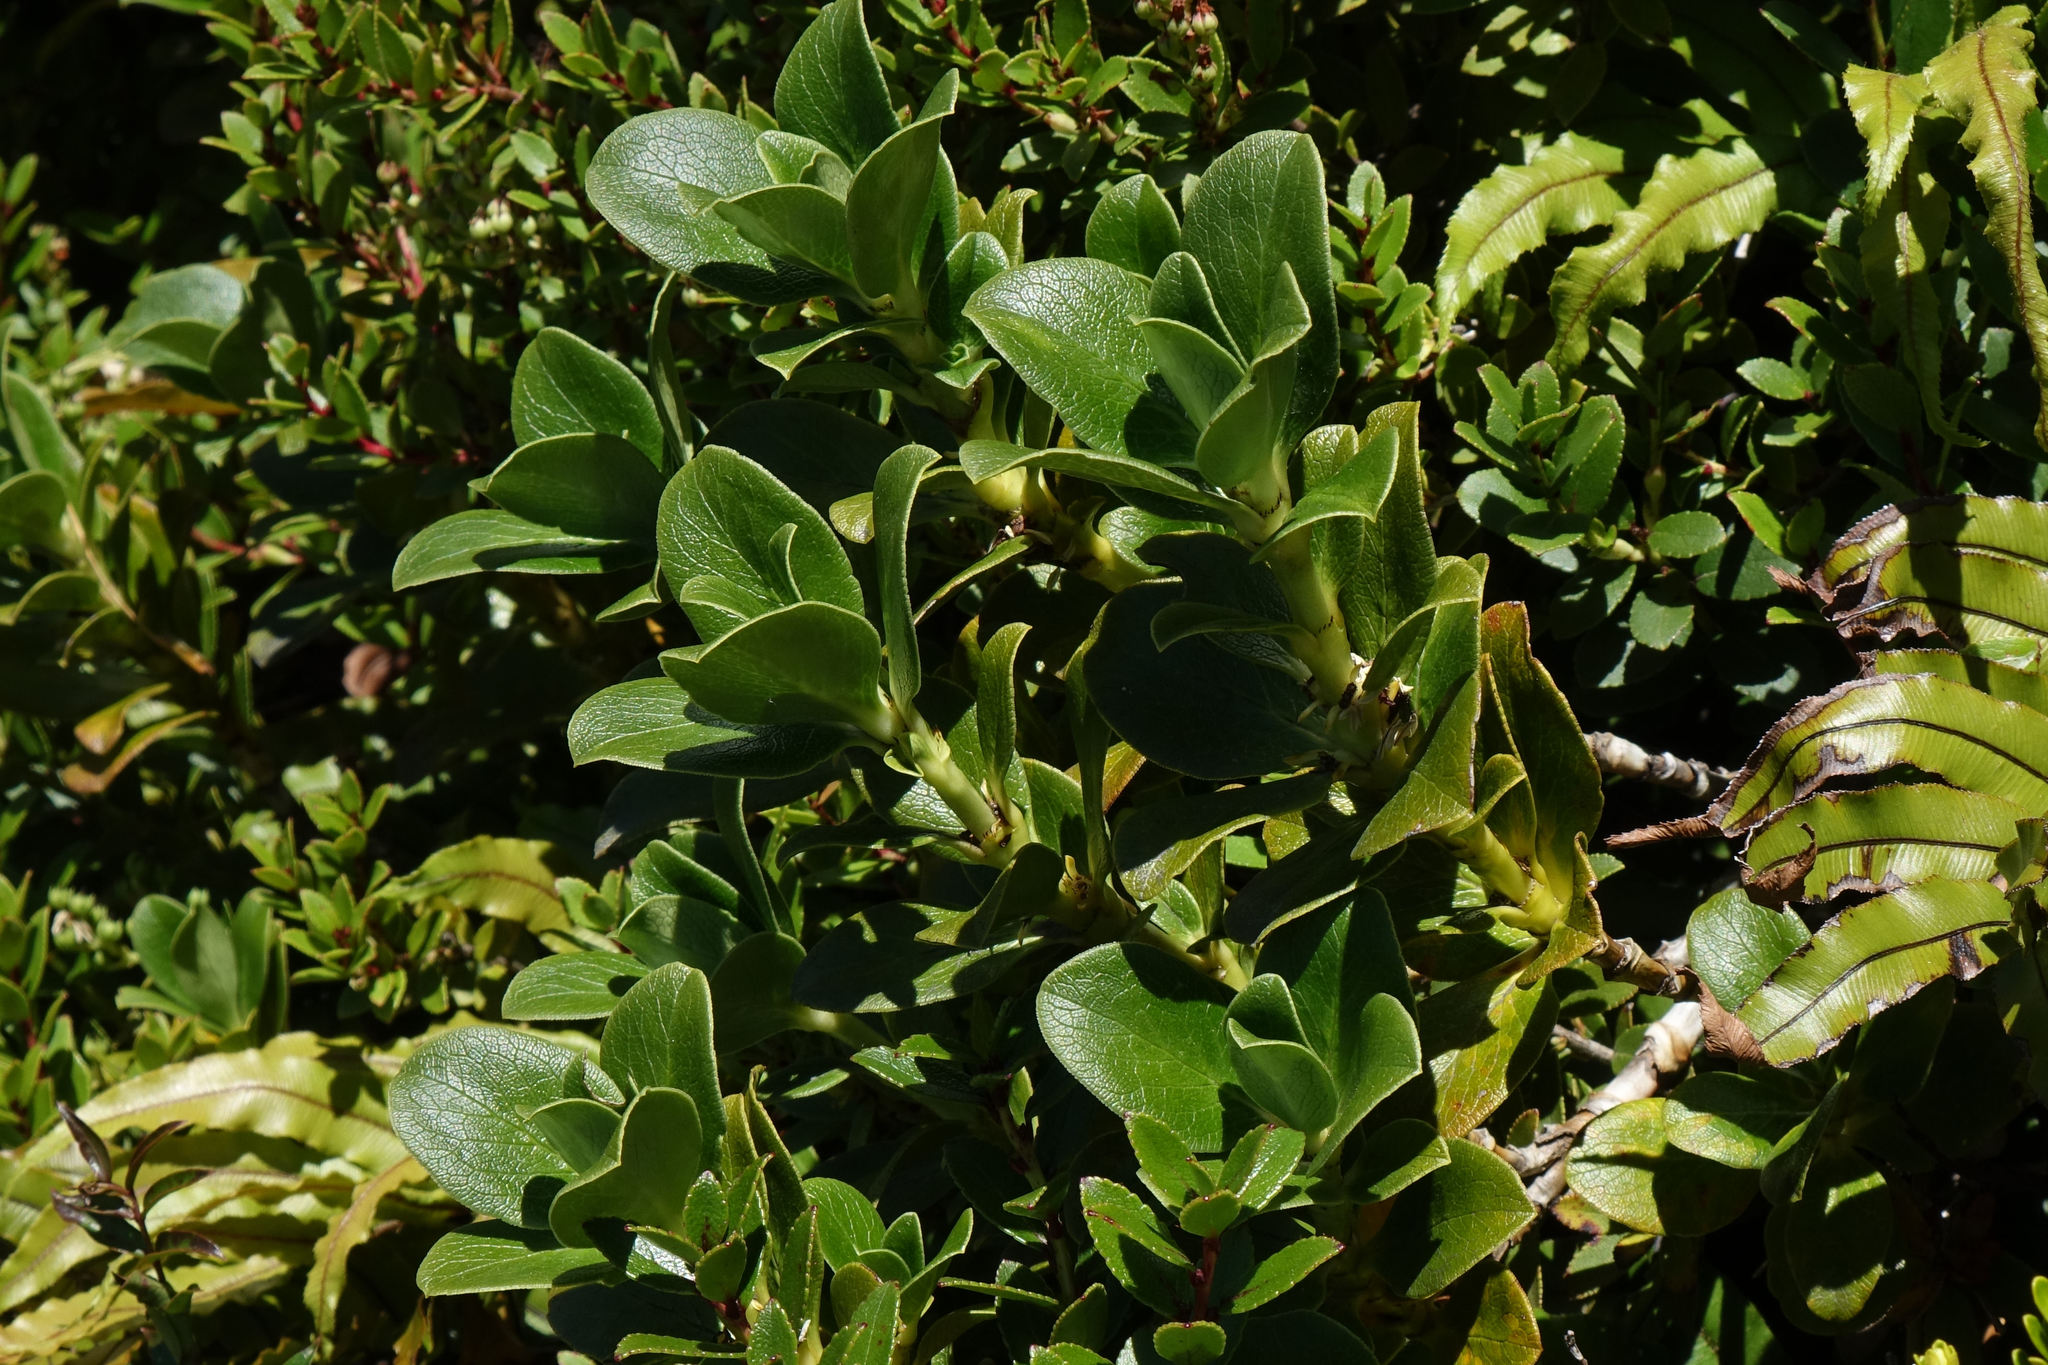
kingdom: Plantae
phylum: Tracheophyta
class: Magnoliopsida
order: Gentianales
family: Rubiaceae
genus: Coprosma
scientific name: Coprosma serrulata
